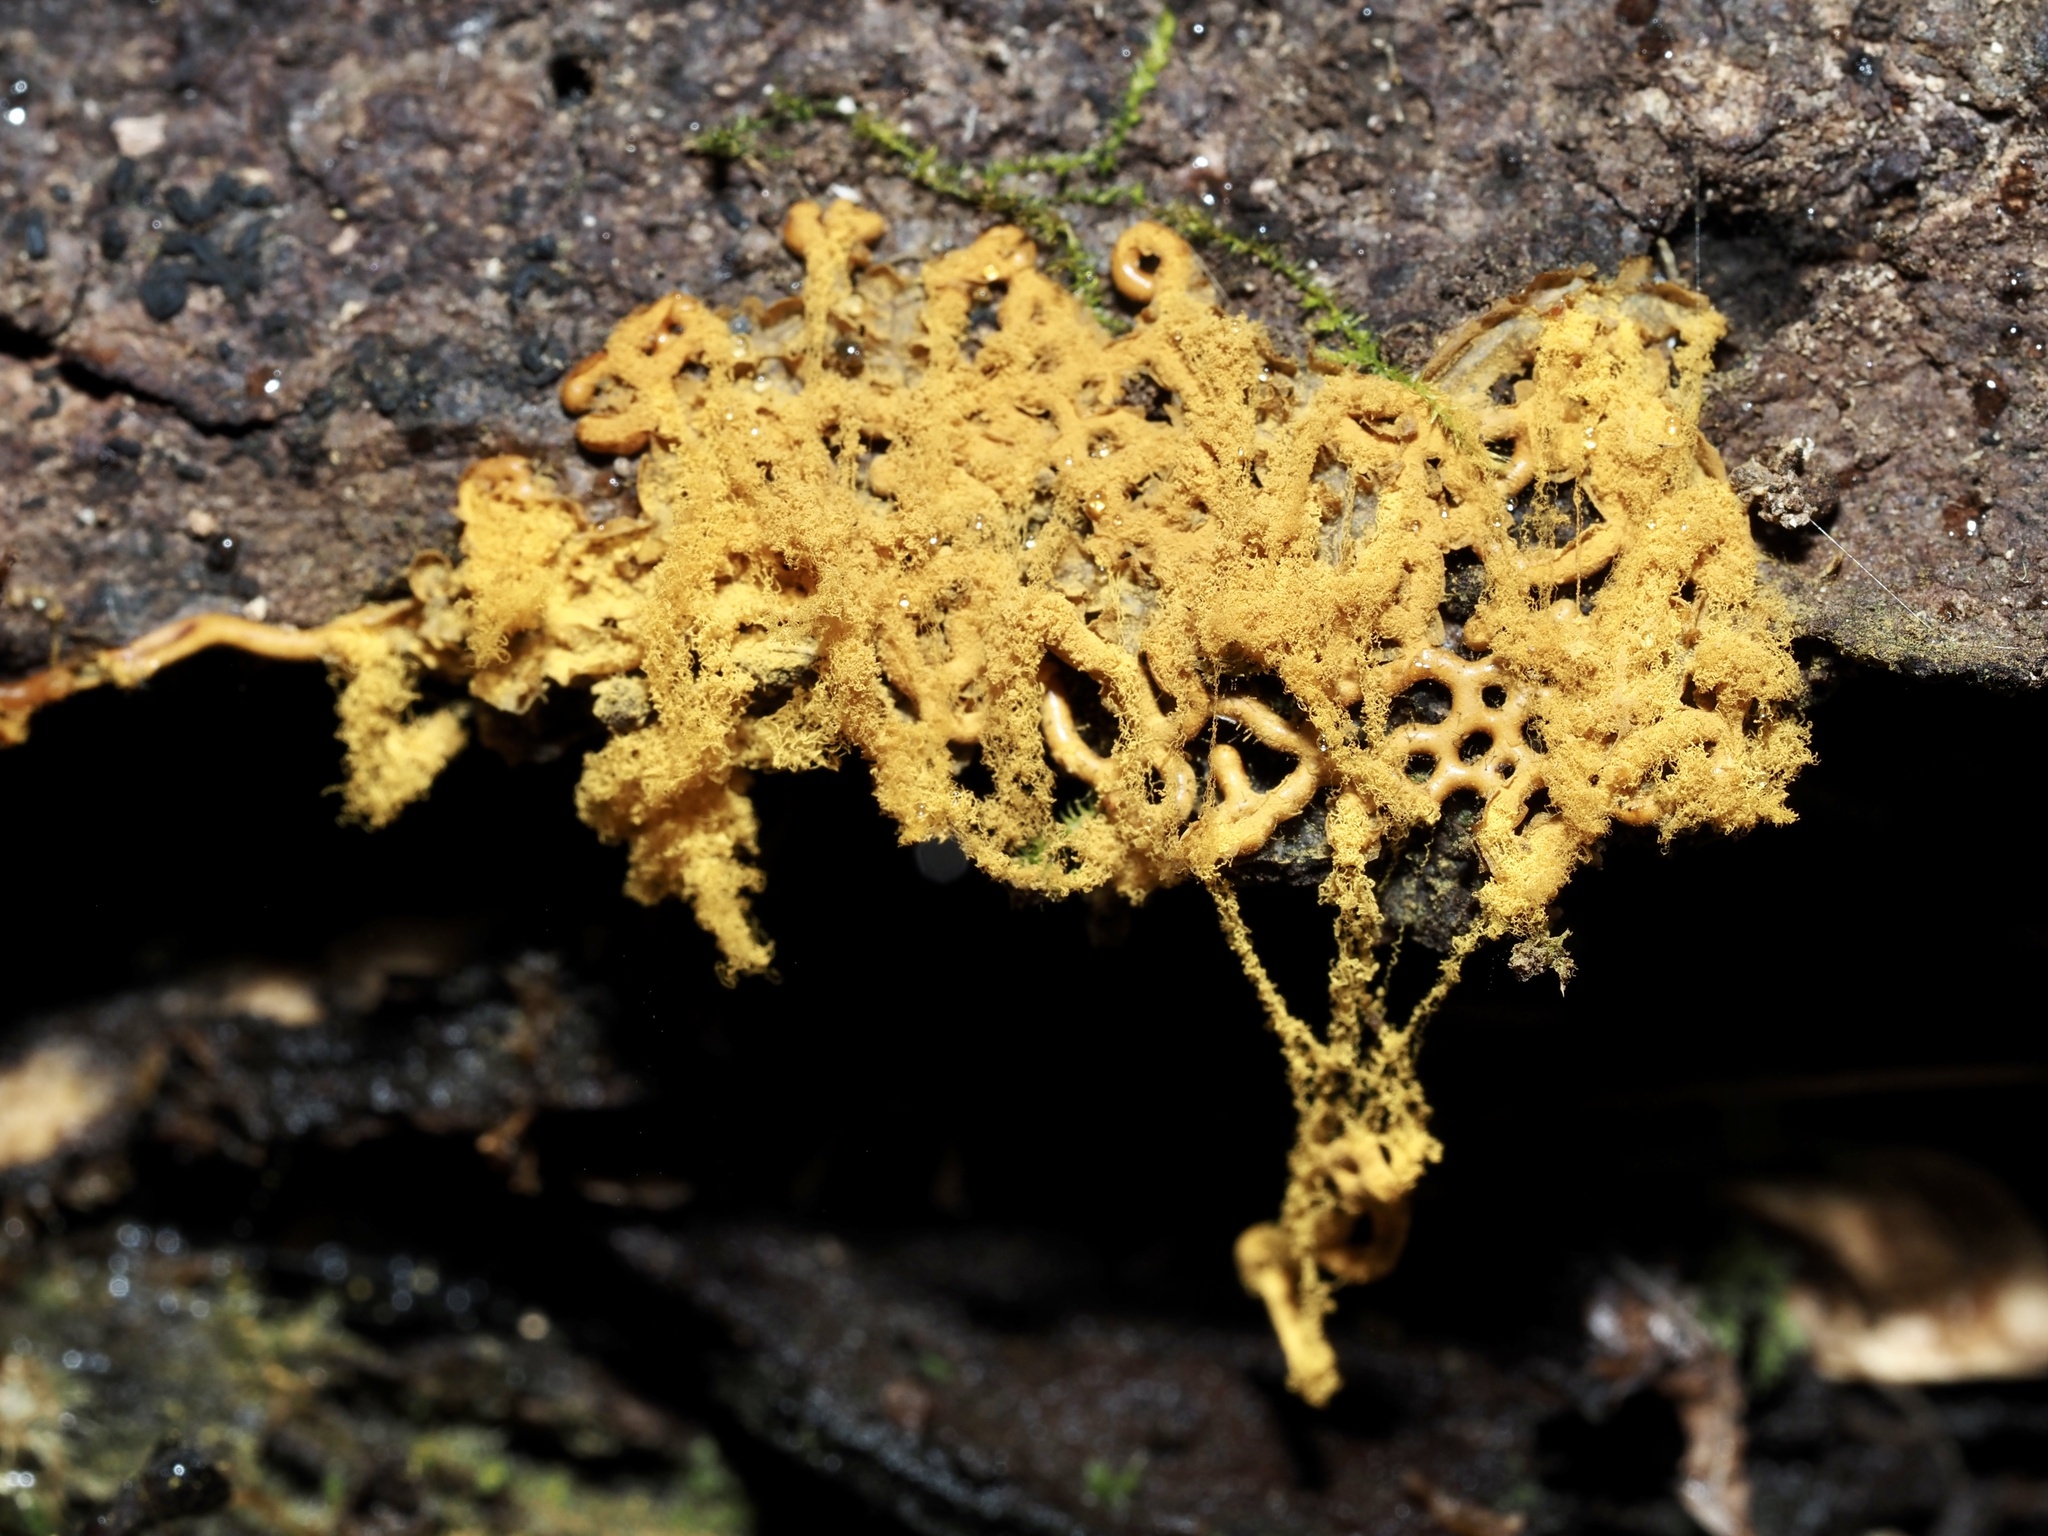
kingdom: Protozoa
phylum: Mycetozoa
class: Myxomycetes
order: Trichiales
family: Arcyriaceae
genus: Hemitrichia
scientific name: Hemitrichia serpula
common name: Pretzel slime mold
